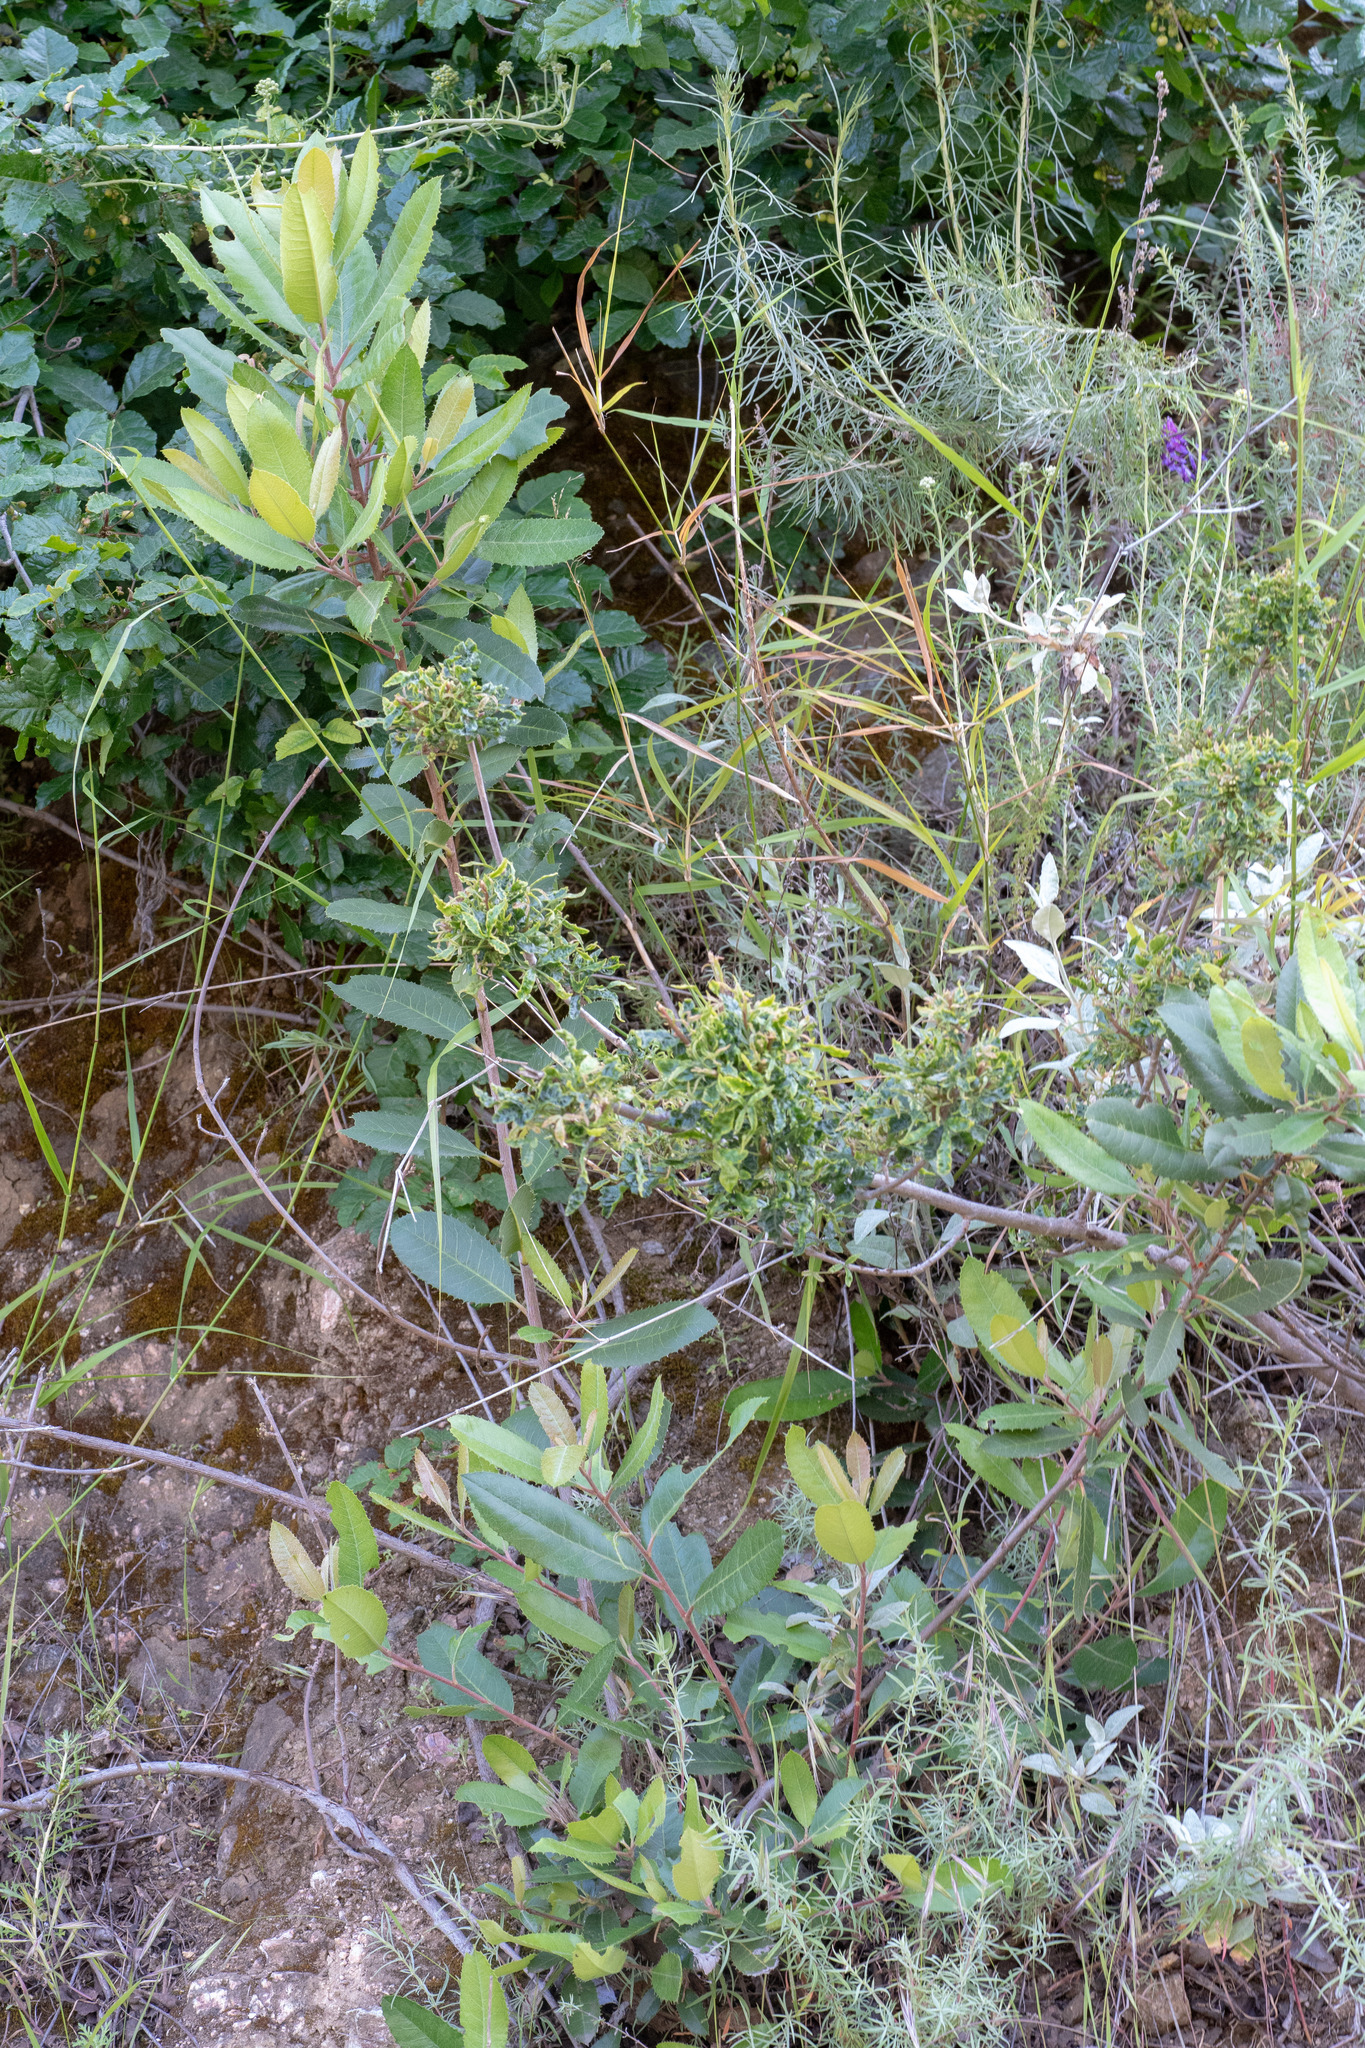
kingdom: Plantae
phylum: Tracheophyta
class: Magnoliopsida
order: Rosales
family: Rosaceae
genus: Heteromeles
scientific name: Heteromeles arbutifolia
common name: California-holly
